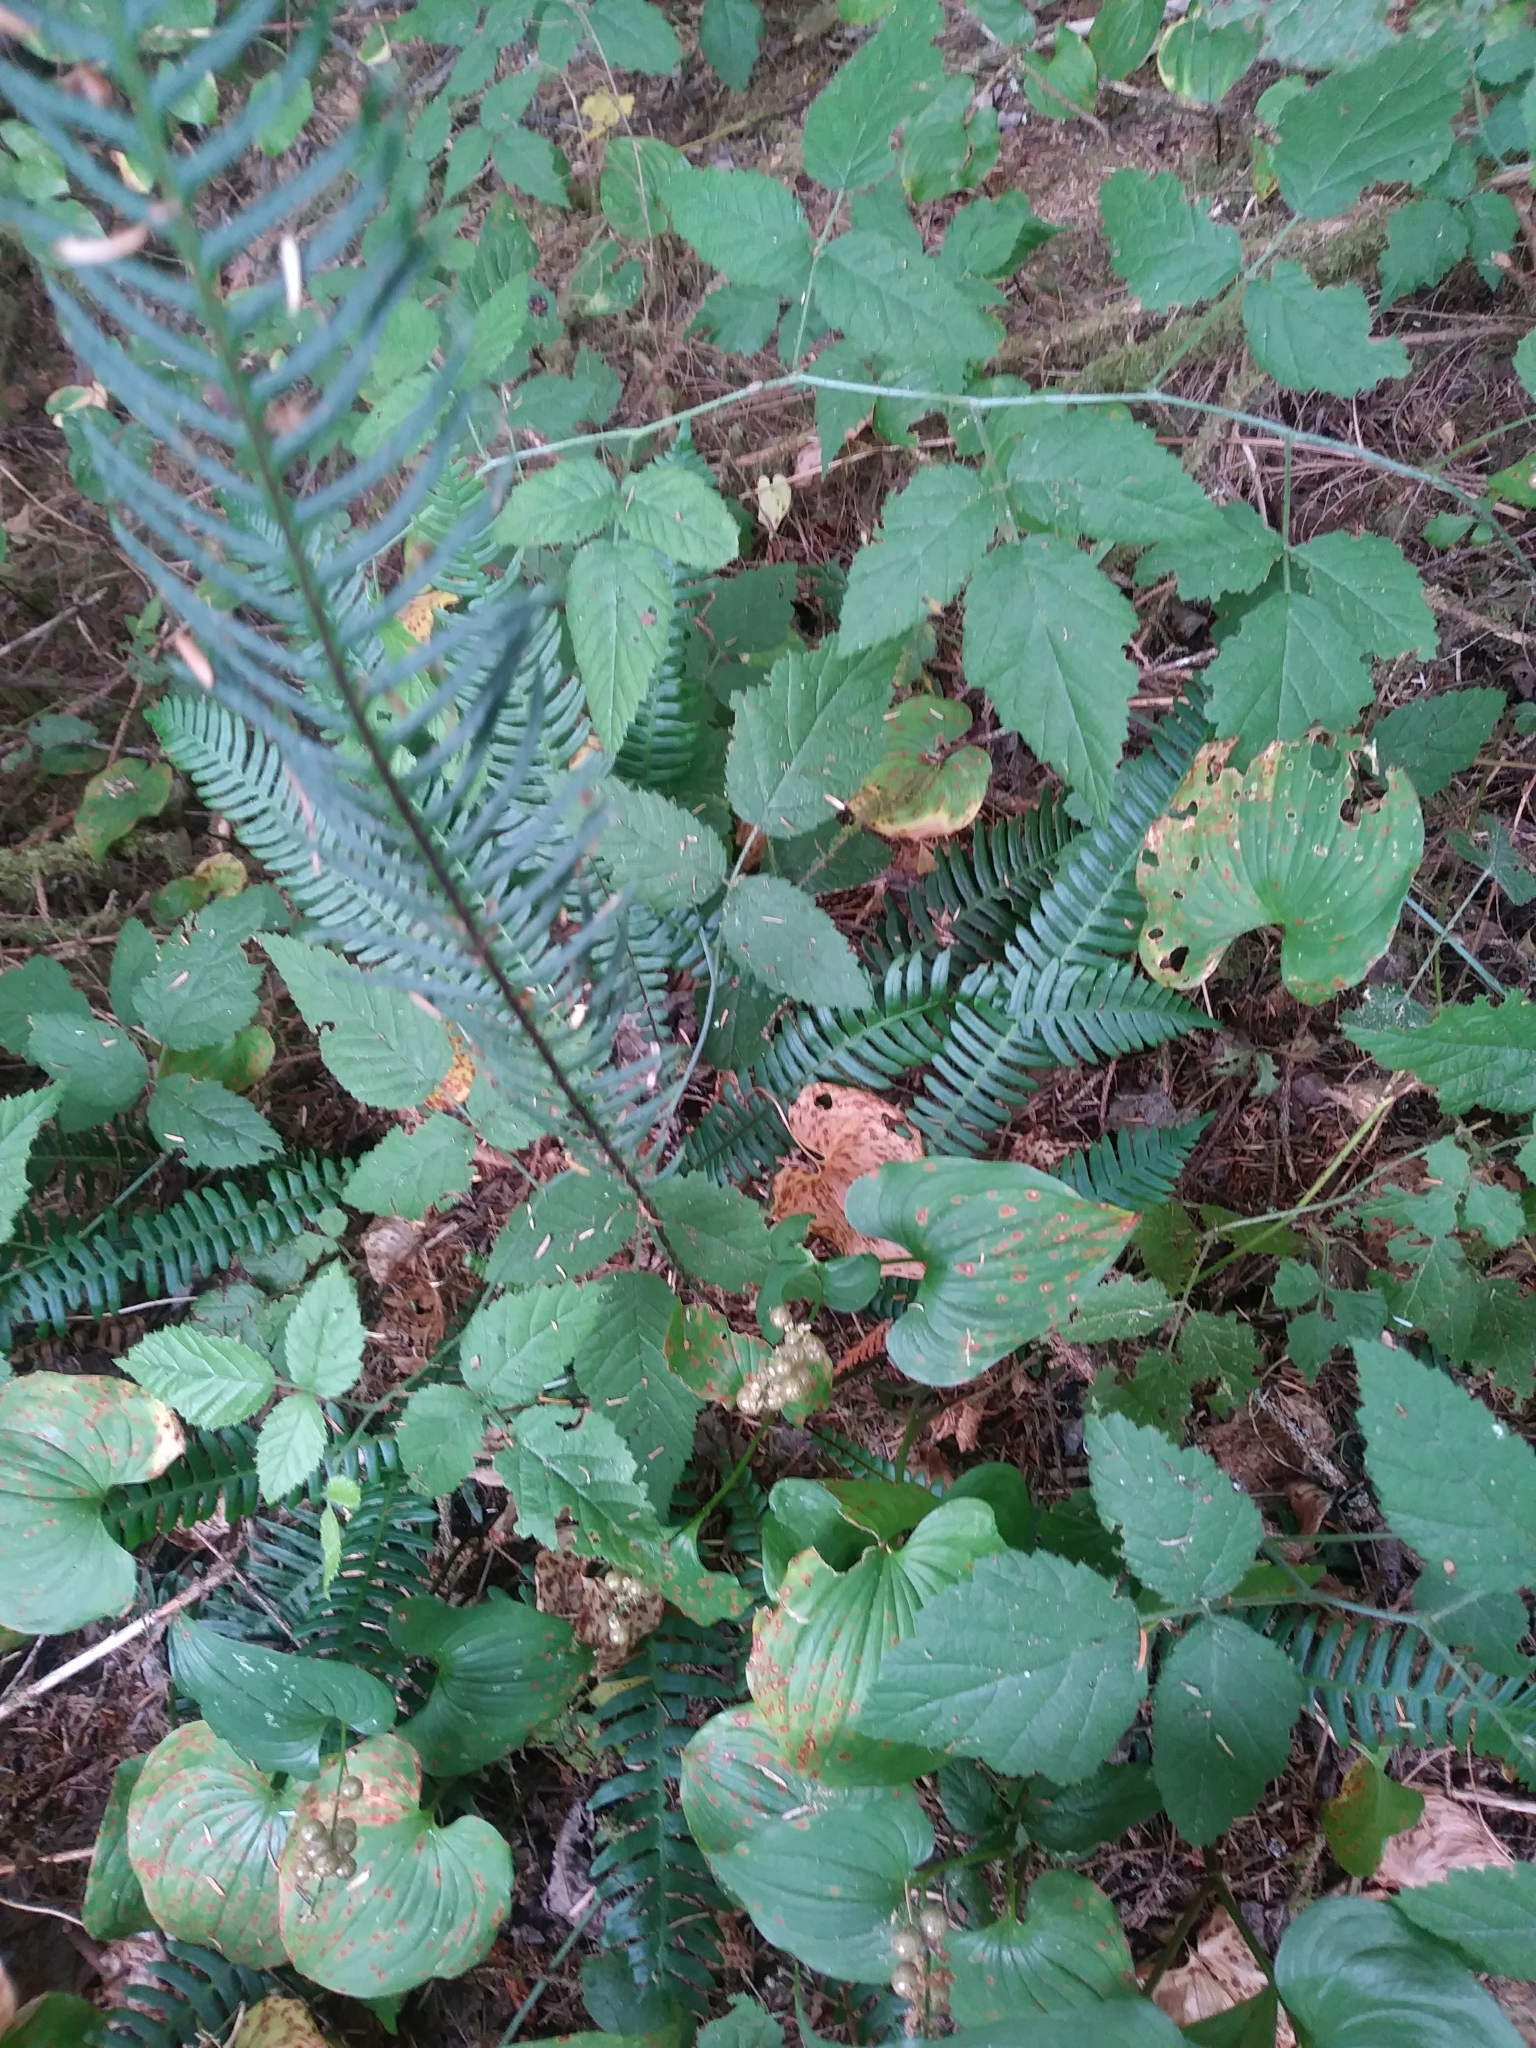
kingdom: Plantae
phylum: Tracheophyta
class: Polypodiopsida
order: Polypodiales
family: Blechnaceae
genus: Struthiopteris
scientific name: Struthiopteris spicant
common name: Deer fern
